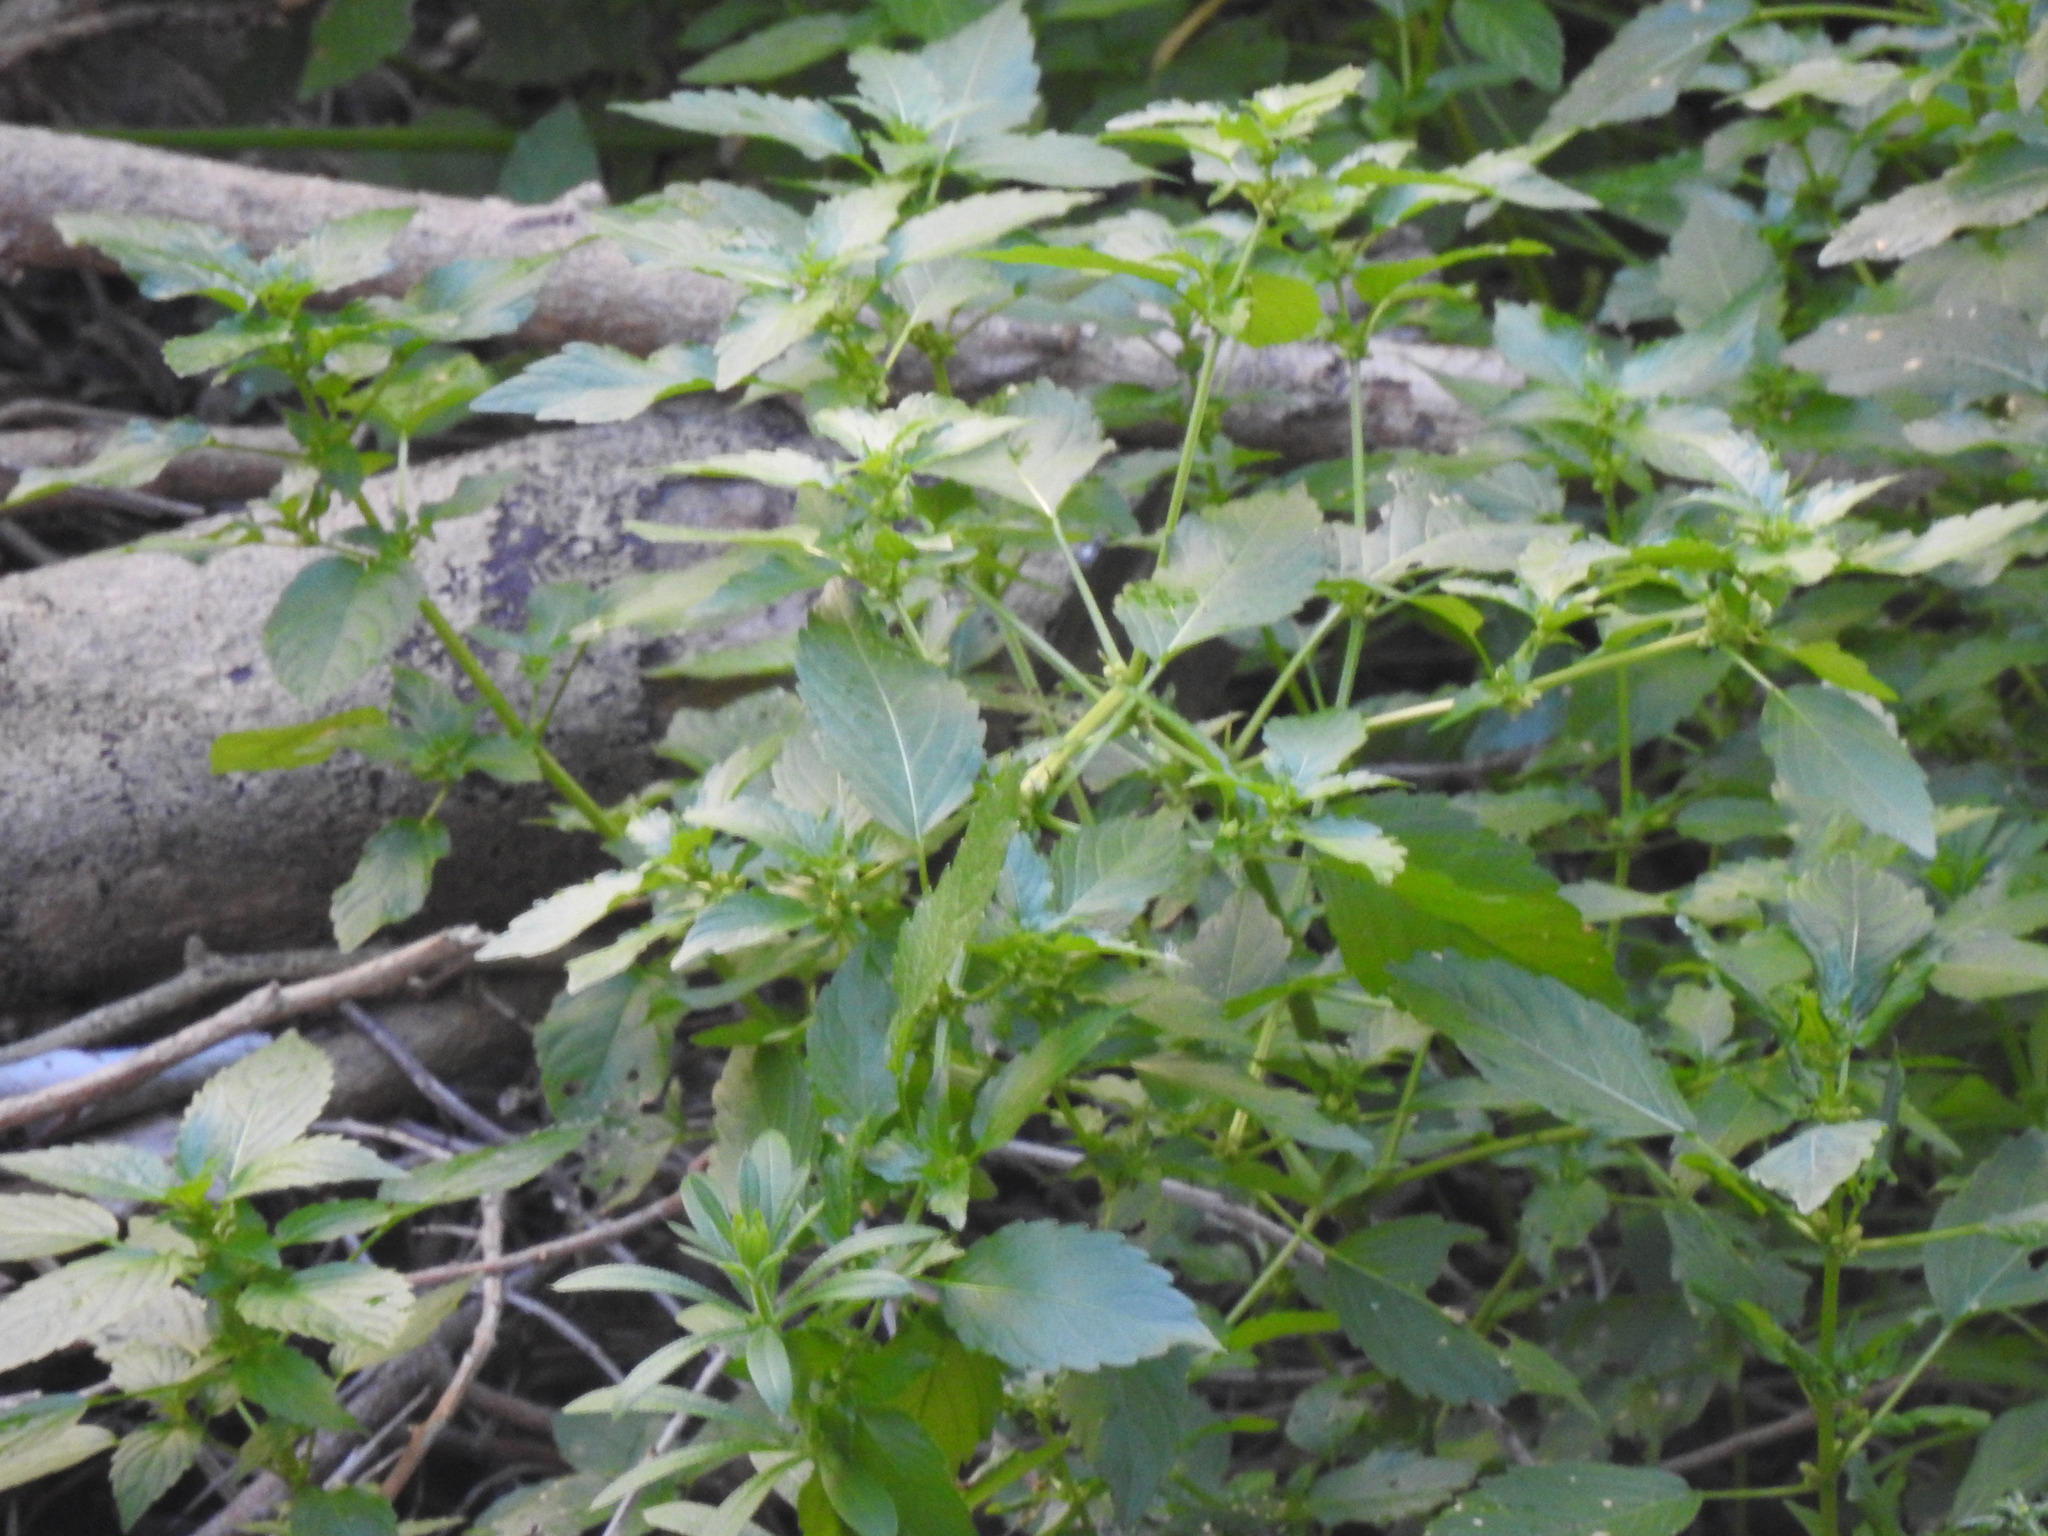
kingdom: Plantae
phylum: Tracheophyta
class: Magnoliopsida
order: Malpighiales
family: Euphorbiaceae
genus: Mercurialis
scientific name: Mercurialis annua
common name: Annual mercury
